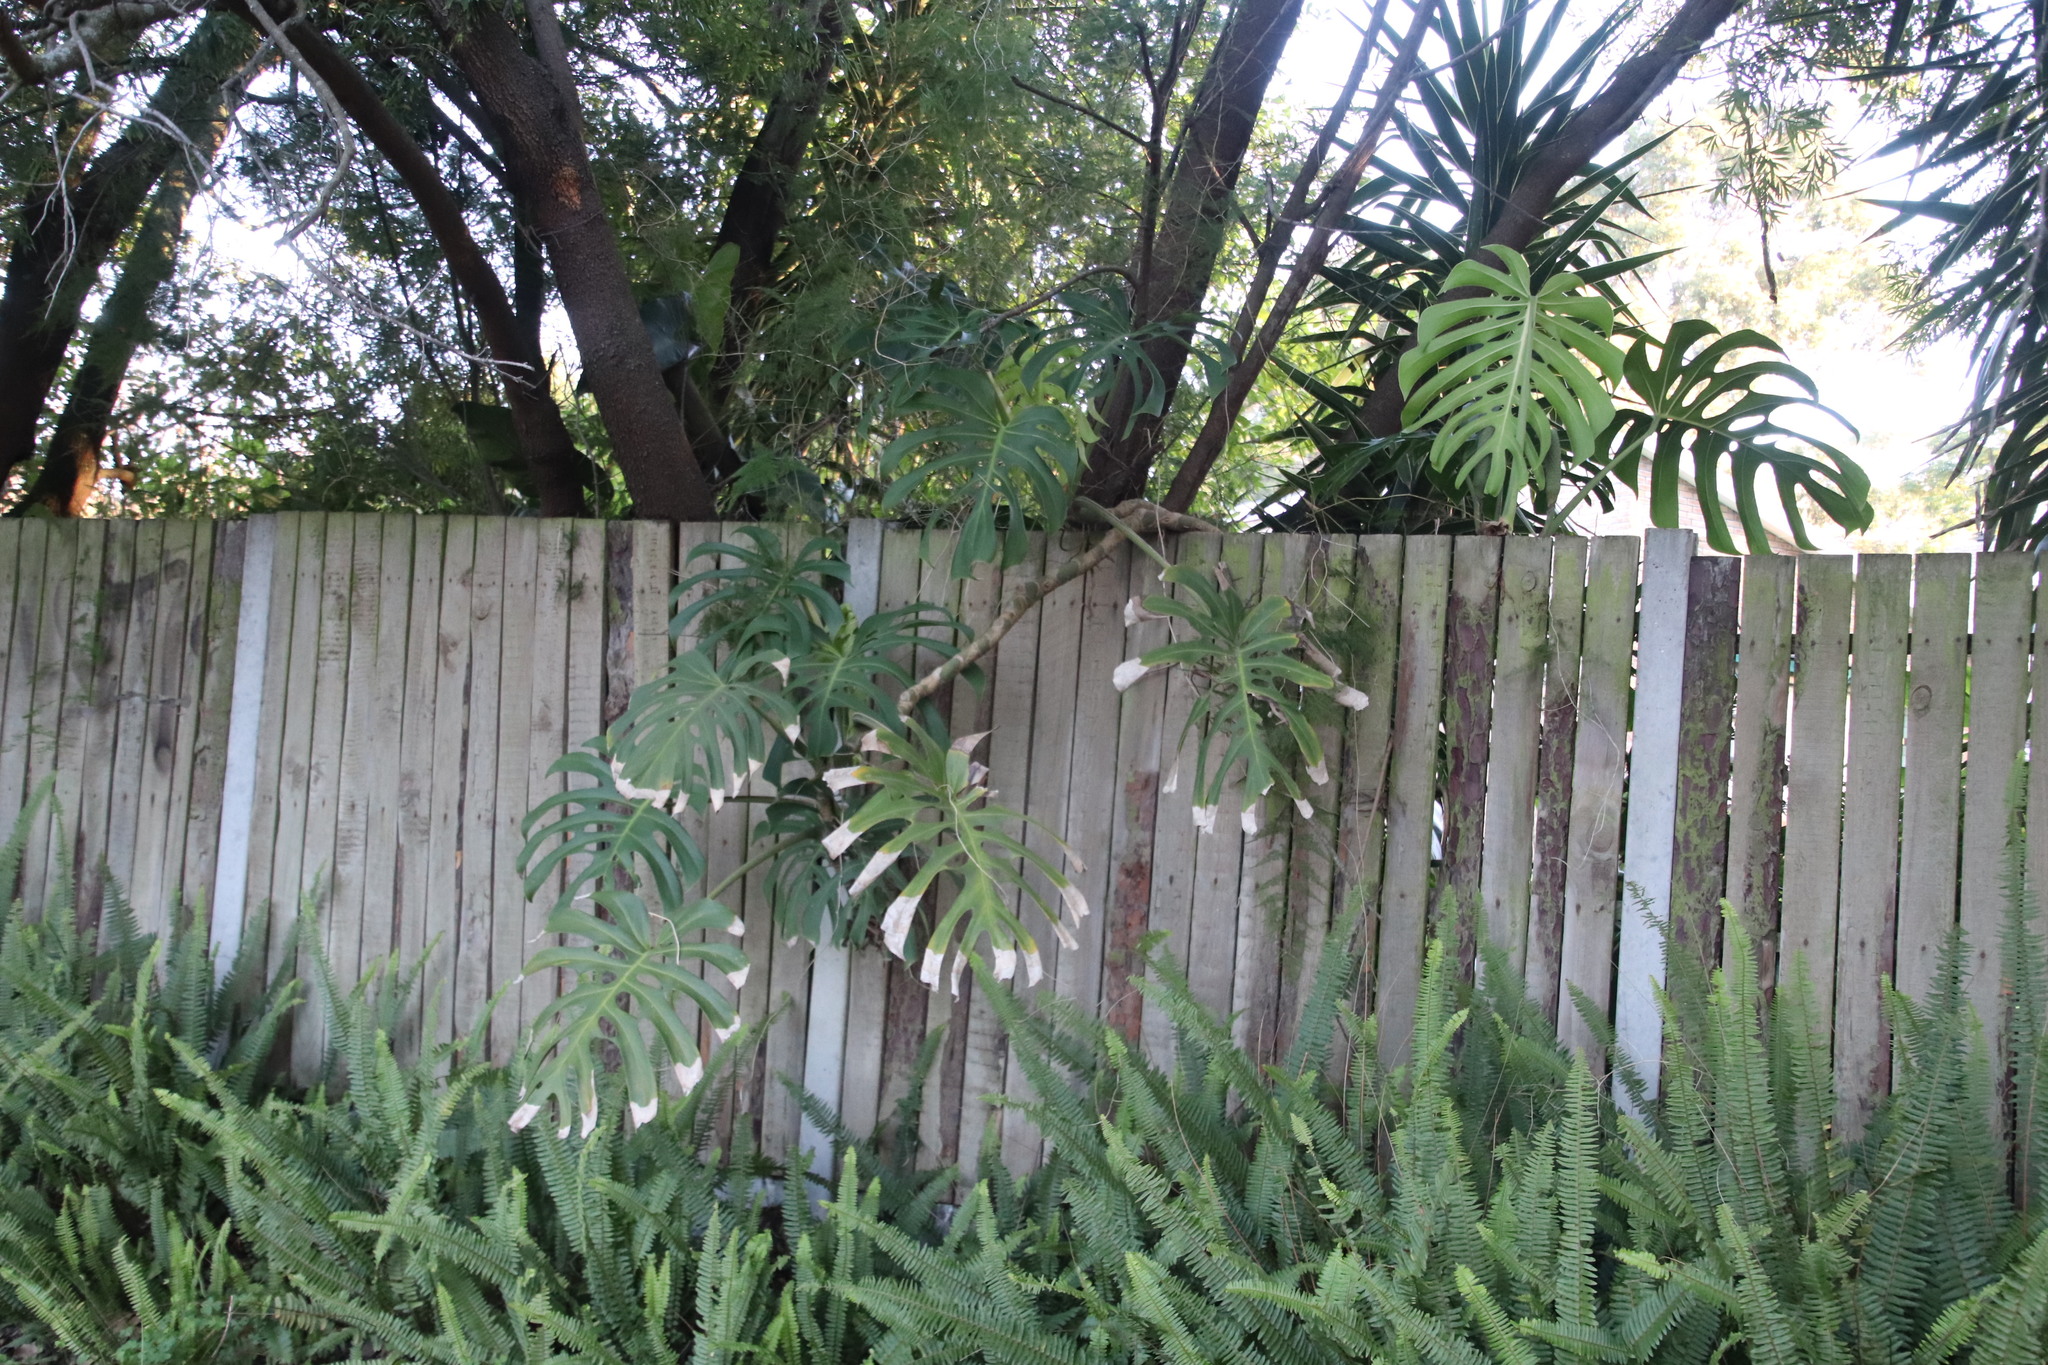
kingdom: Plantae
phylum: Tracheophyta
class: Liliopsida
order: Alismatales
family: Araceae
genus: Monstera
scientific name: Monstera deliciosa
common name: Cut-leaf-philodendron
